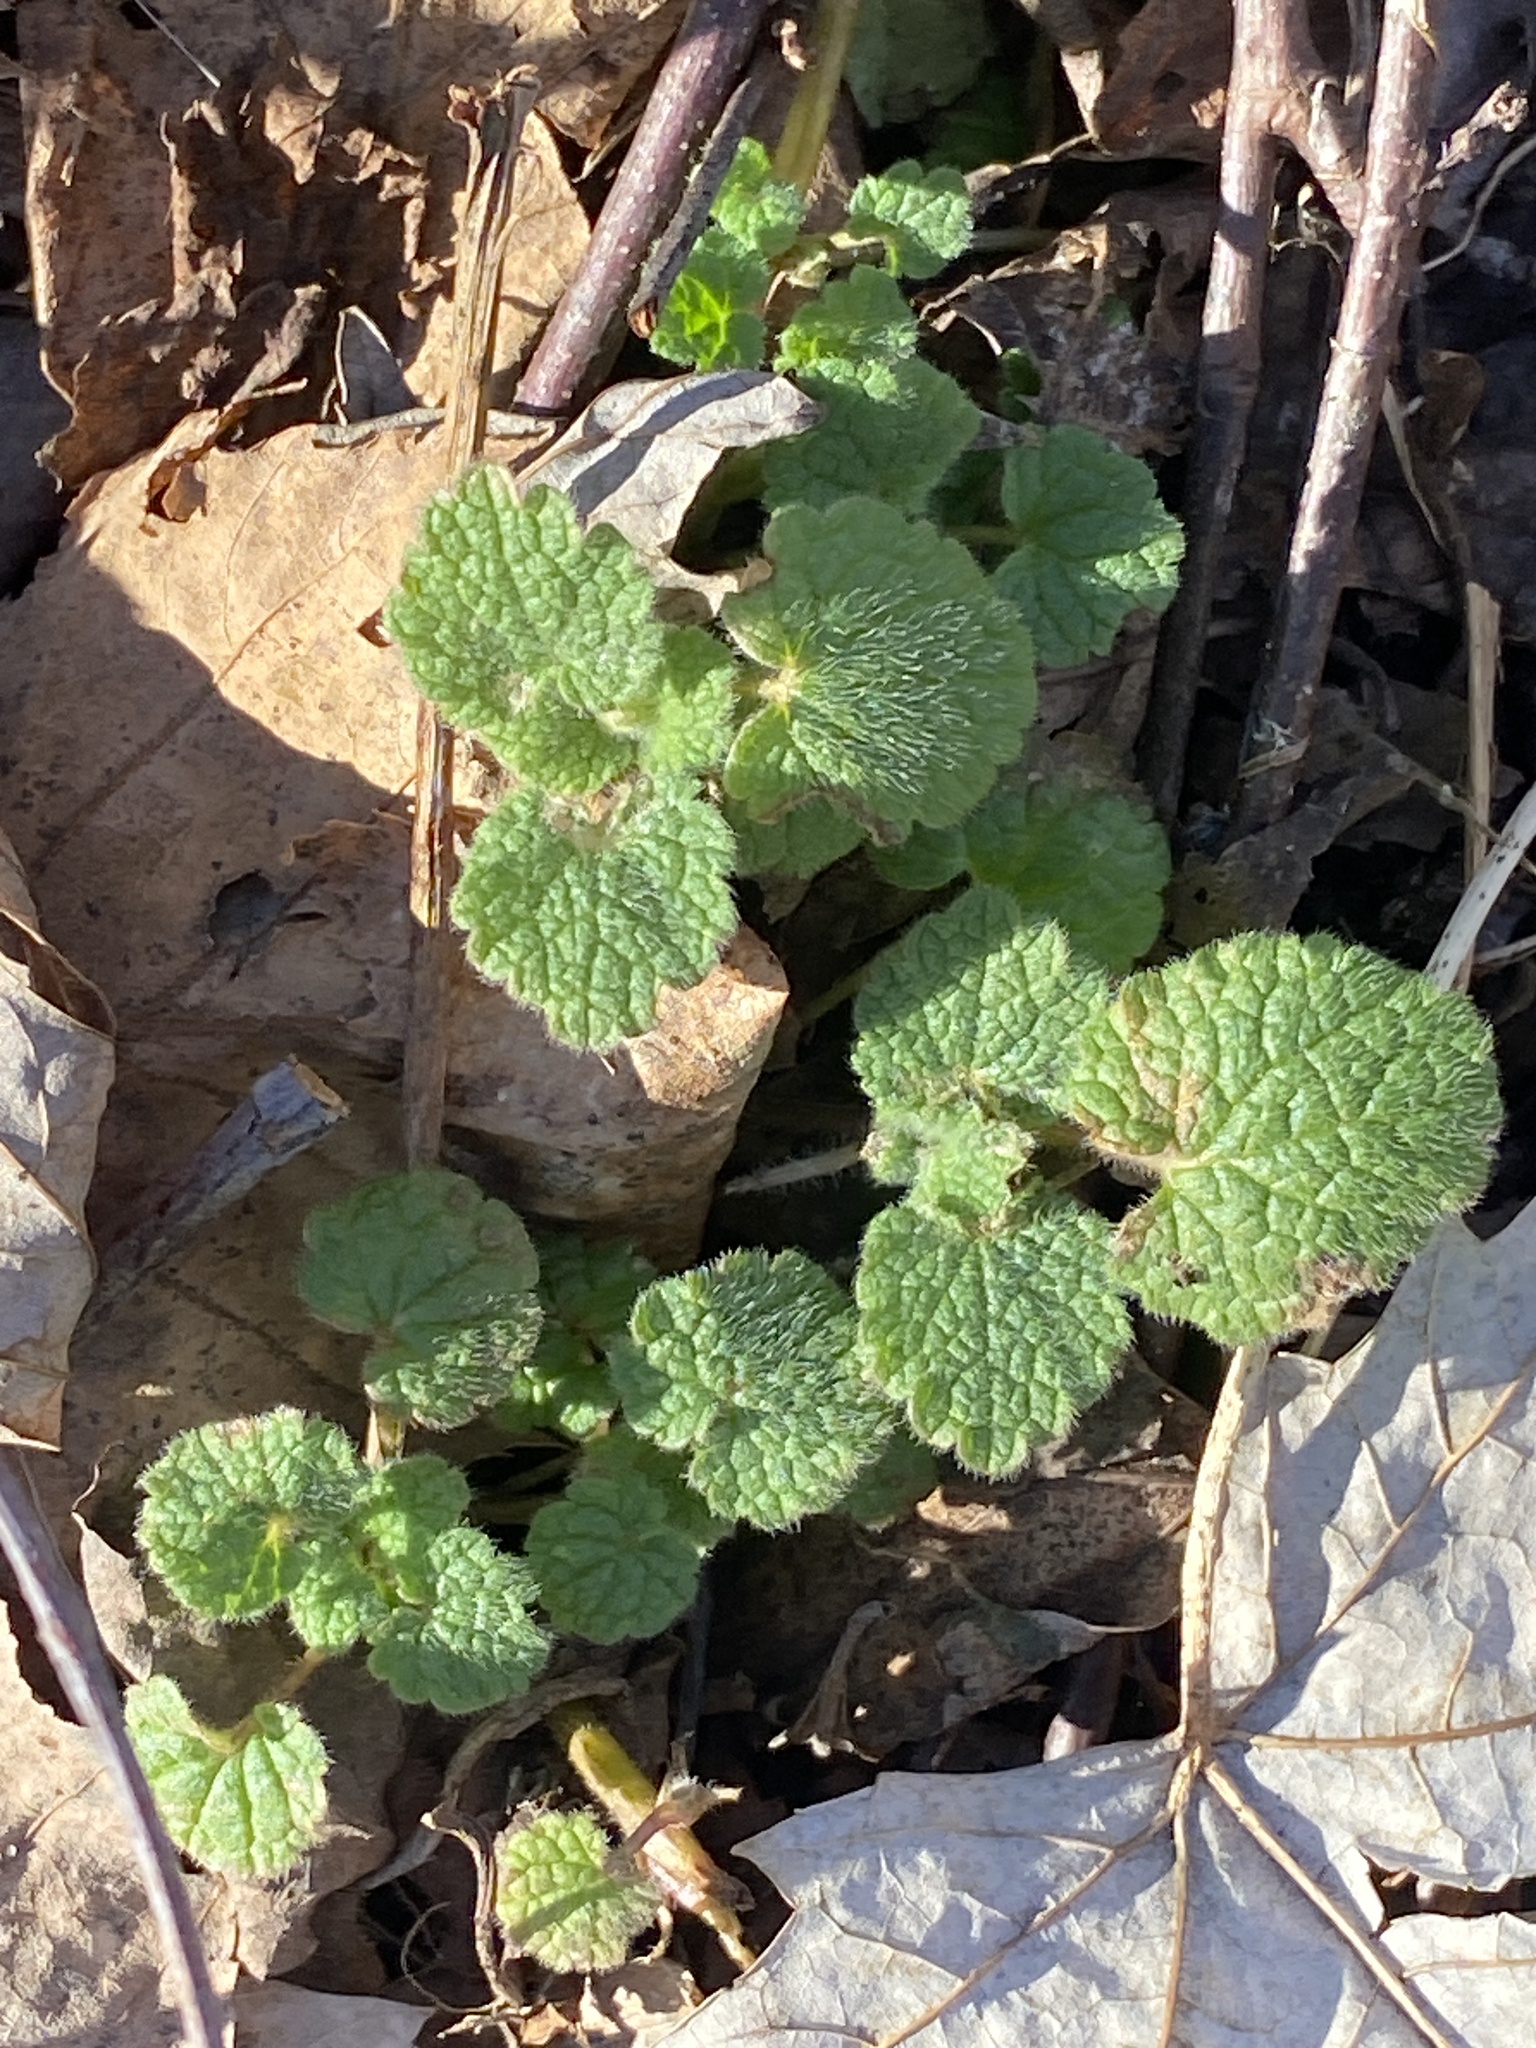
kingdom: Plantae
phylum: Tracheophyta
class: Magnoliopsida
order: Lamiales
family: Lamiaceae
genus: Lamium
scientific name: Lamium purpureum
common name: Red dead-nettle
